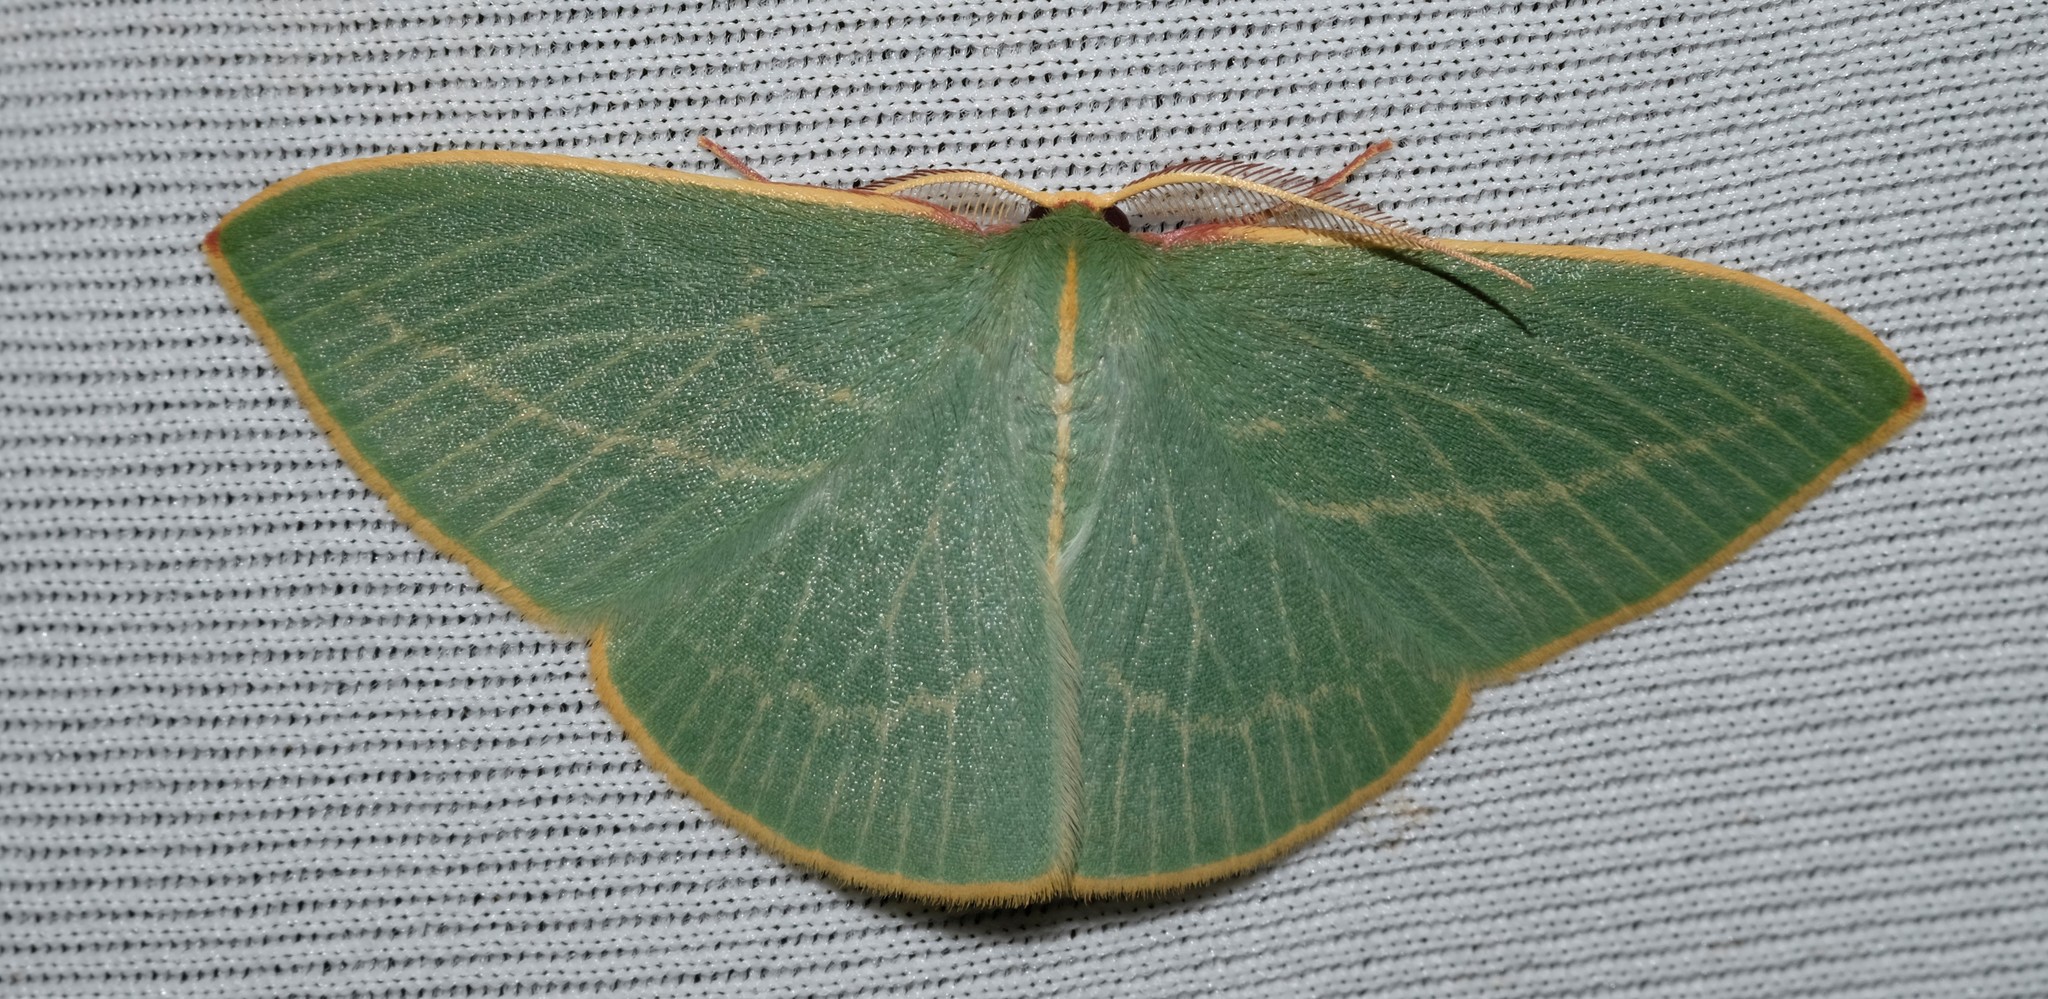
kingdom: Animalia
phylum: Arthropoda
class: Insecta
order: Lepidoptera
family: Geometridae
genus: Chlorocoma
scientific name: Chlorocoma carenaria
